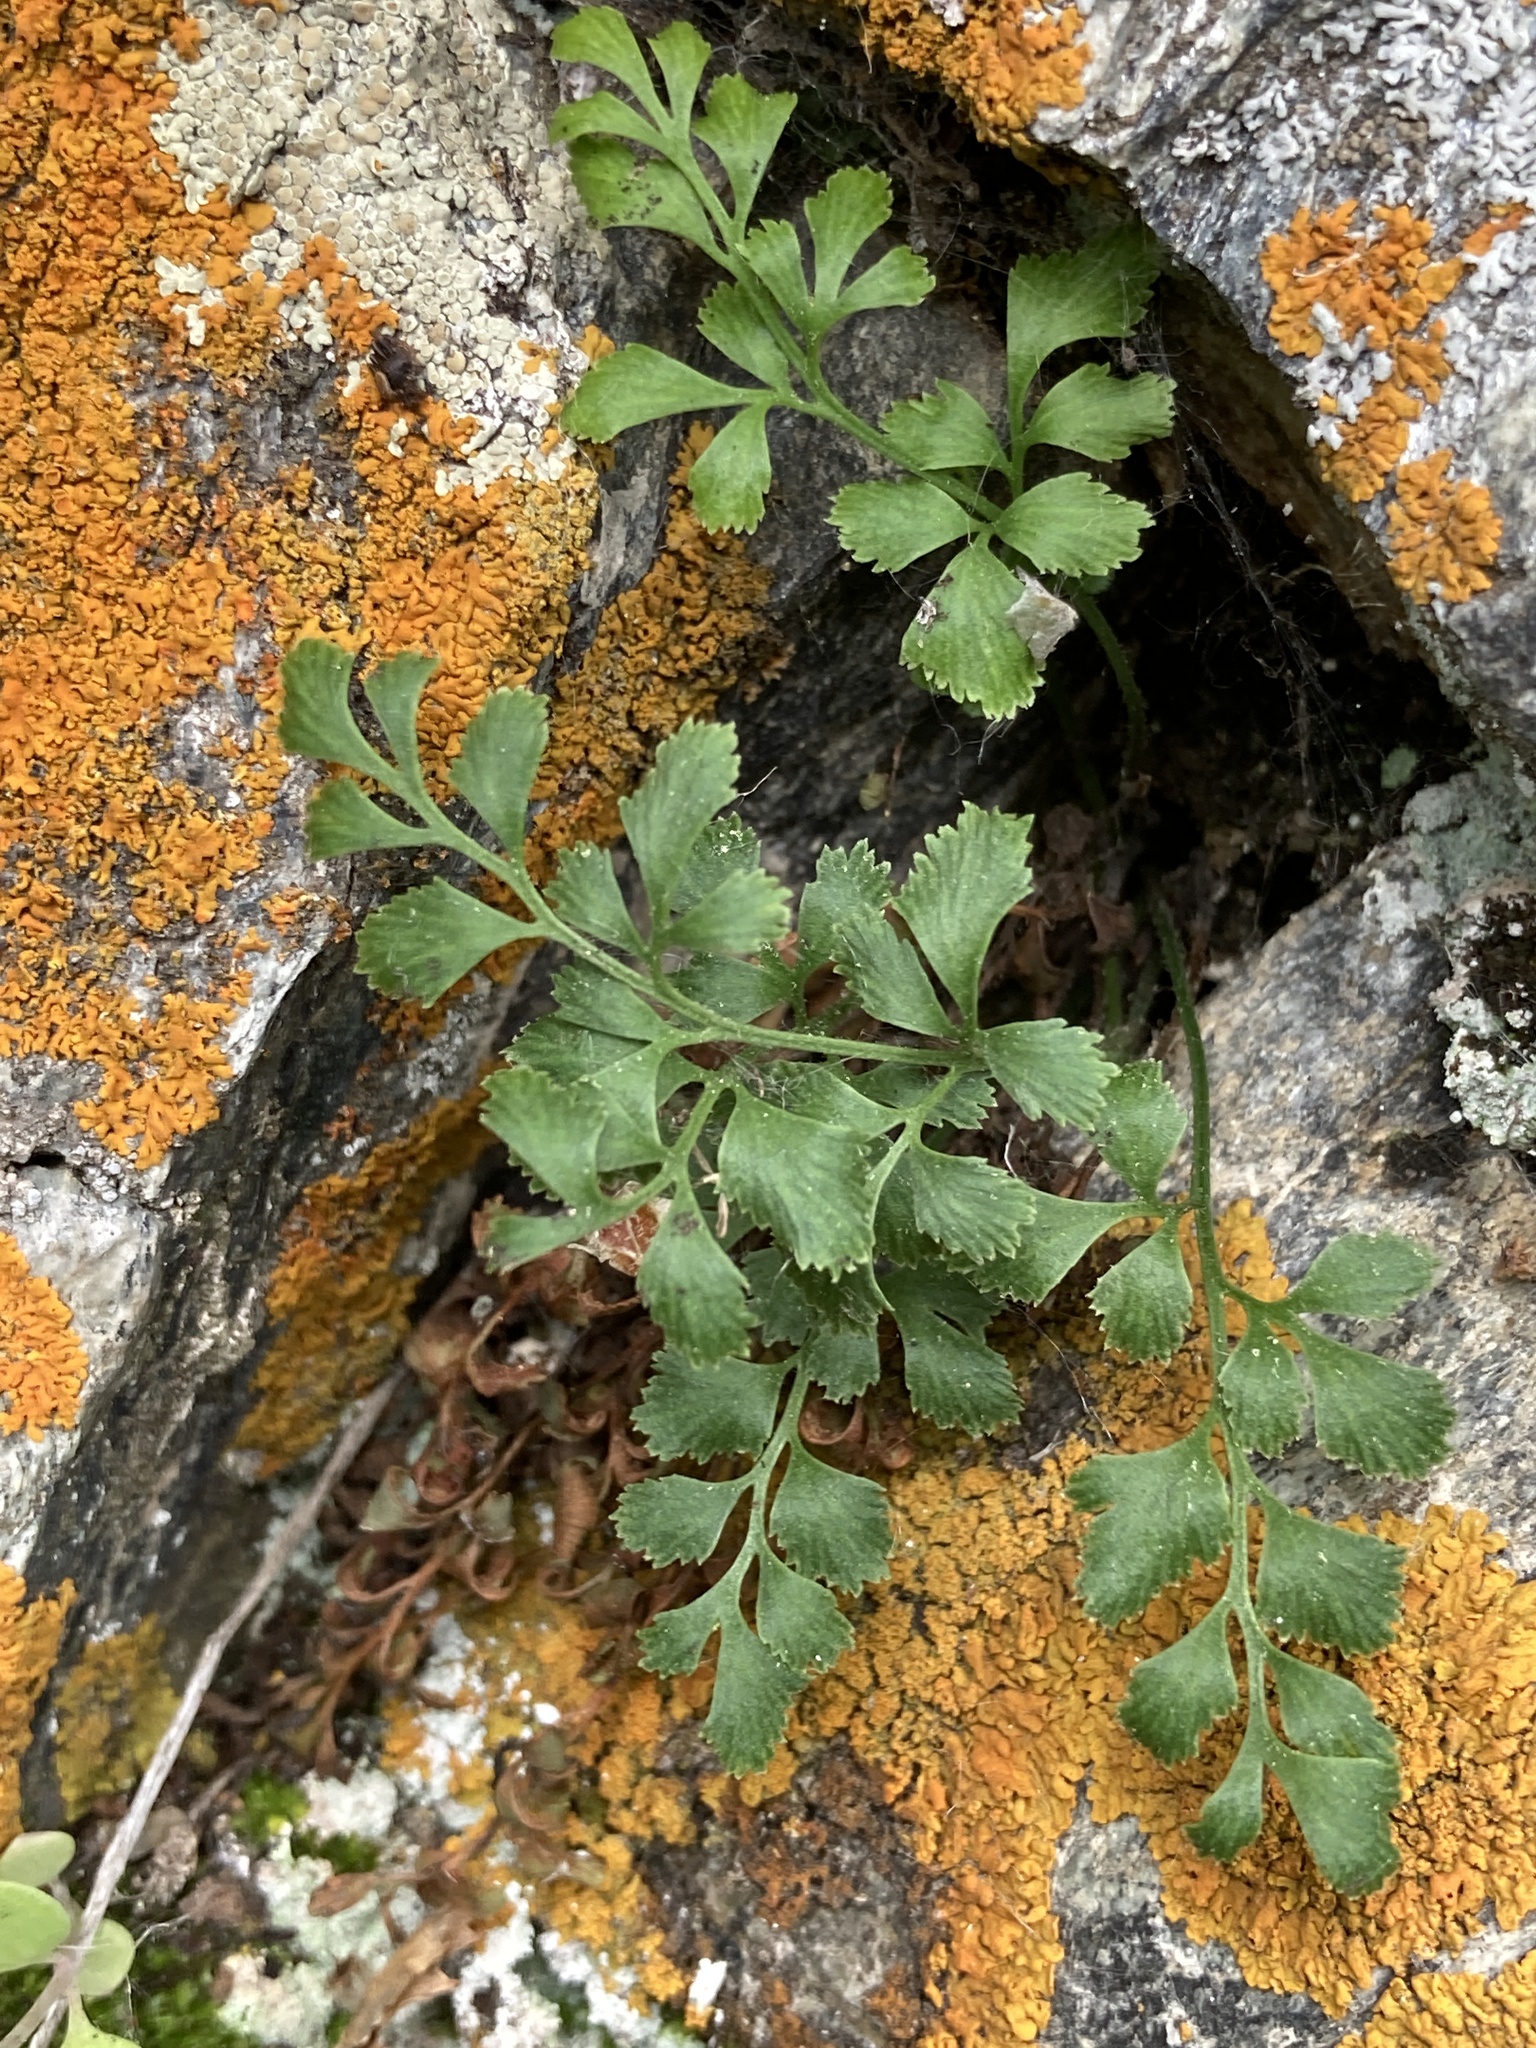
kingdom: Plantae
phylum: Tracheophyta
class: Polypodiopsida
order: Polypodiales
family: Aspleniaceae
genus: Asplenium
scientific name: Asplenium ruta-muraria
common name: Wall-rue
